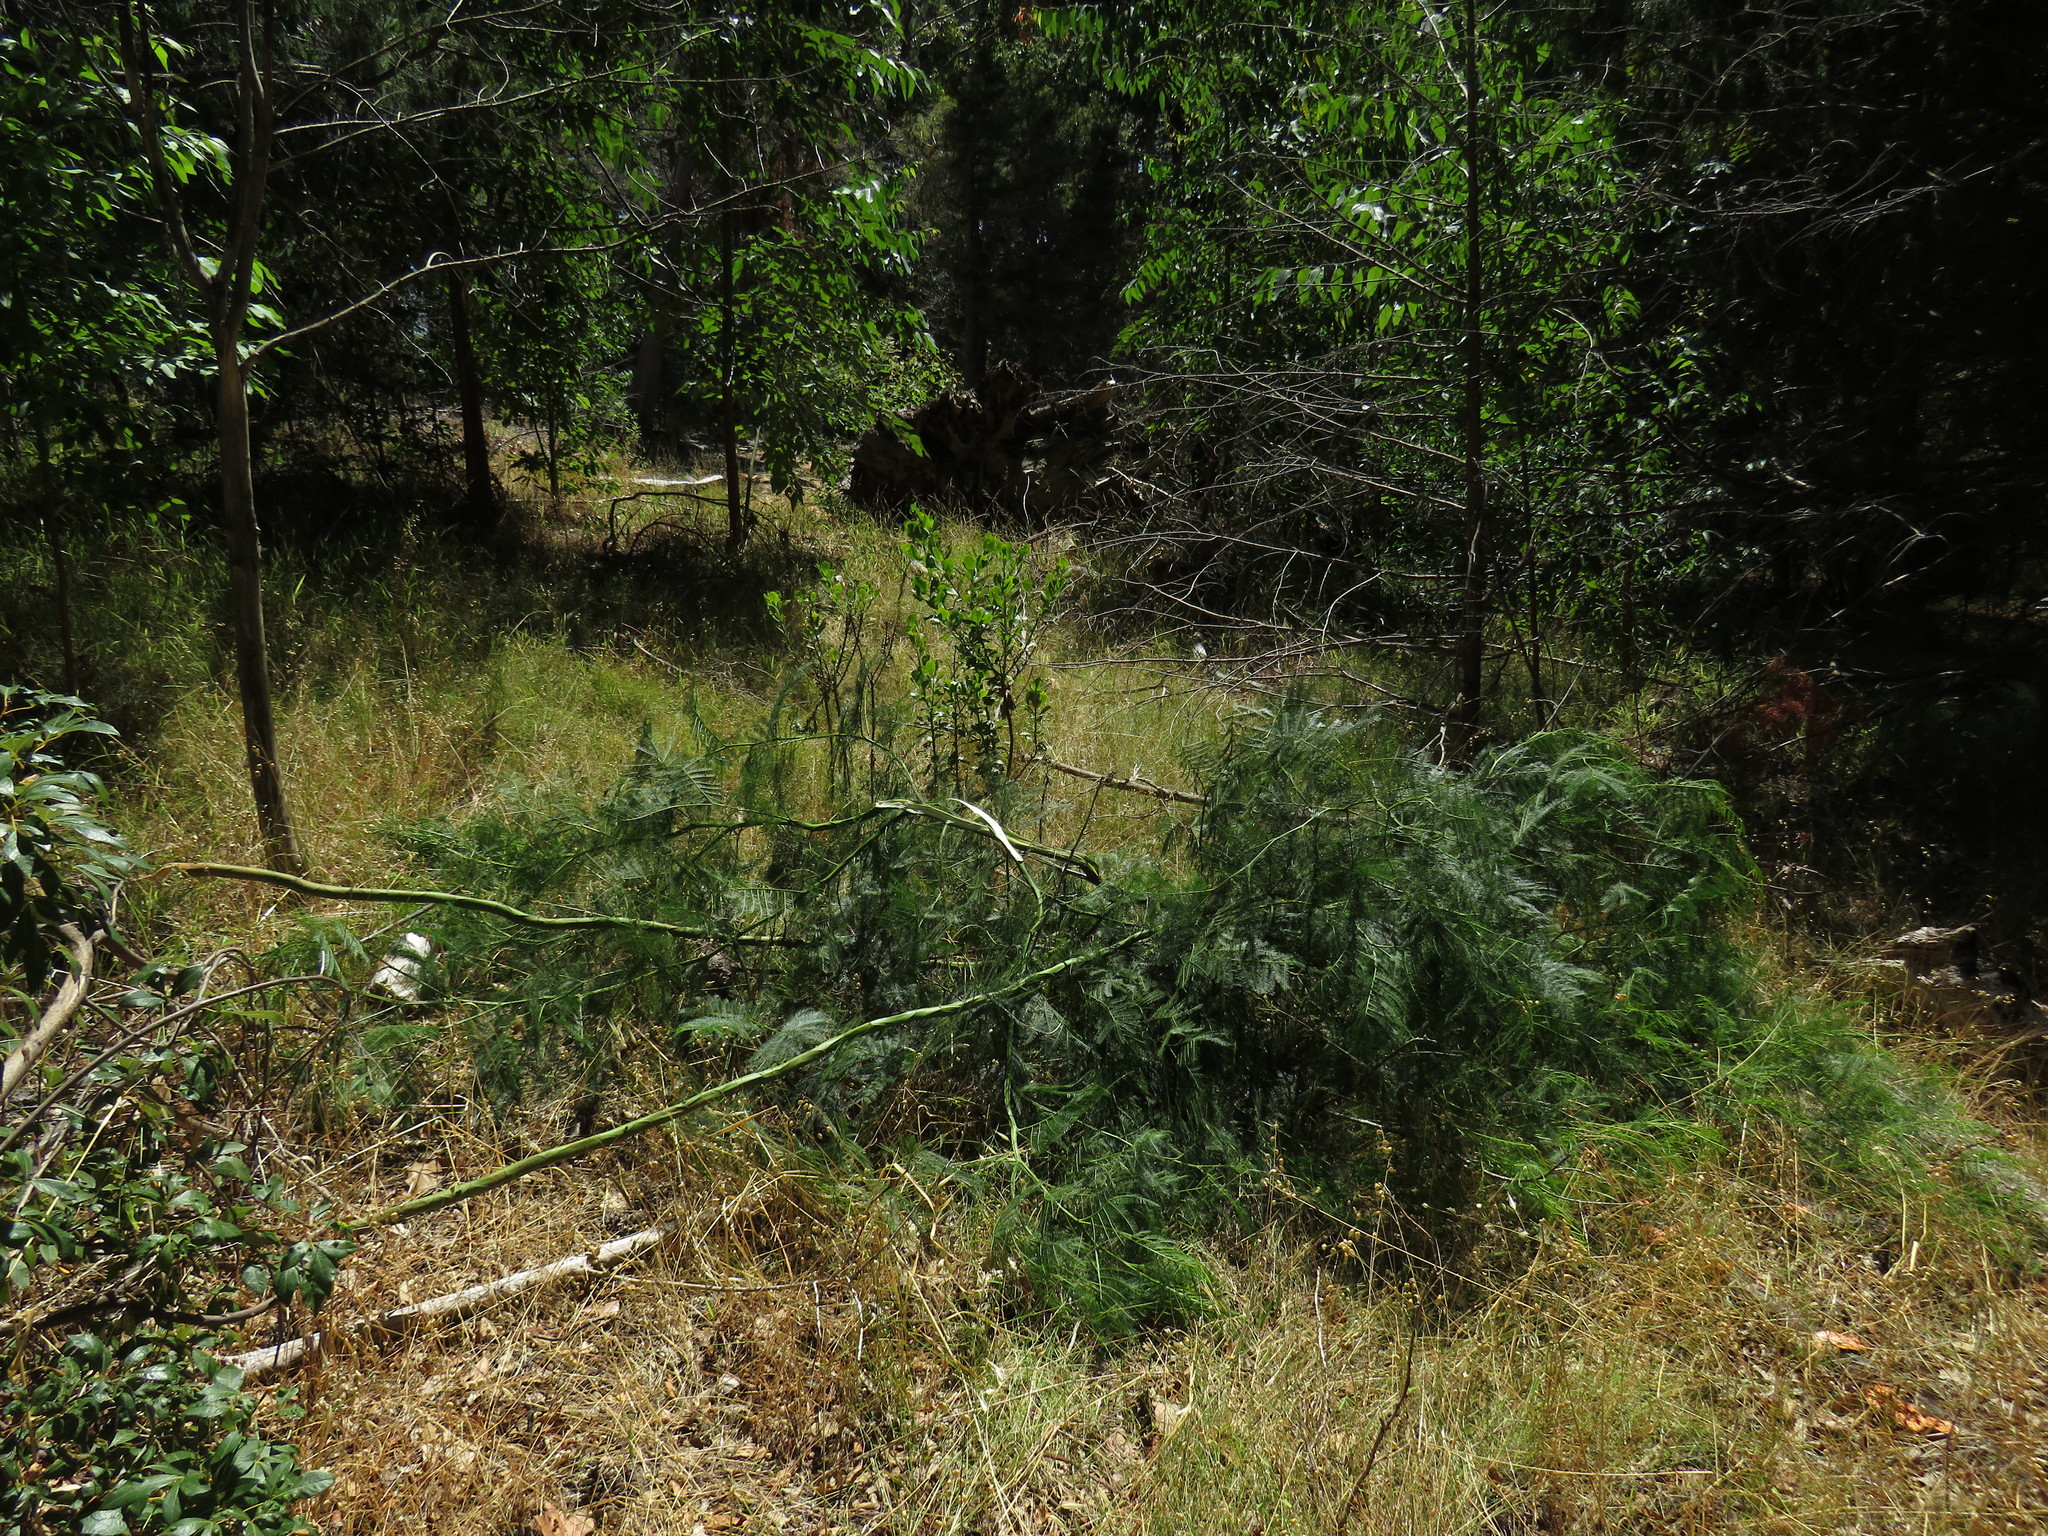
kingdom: Plantae
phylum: Tracheophyta
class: Magnoliopsida
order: Fabales
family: Fabaceae
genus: Acacia
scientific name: Acacia decurrens
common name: Green wattle
